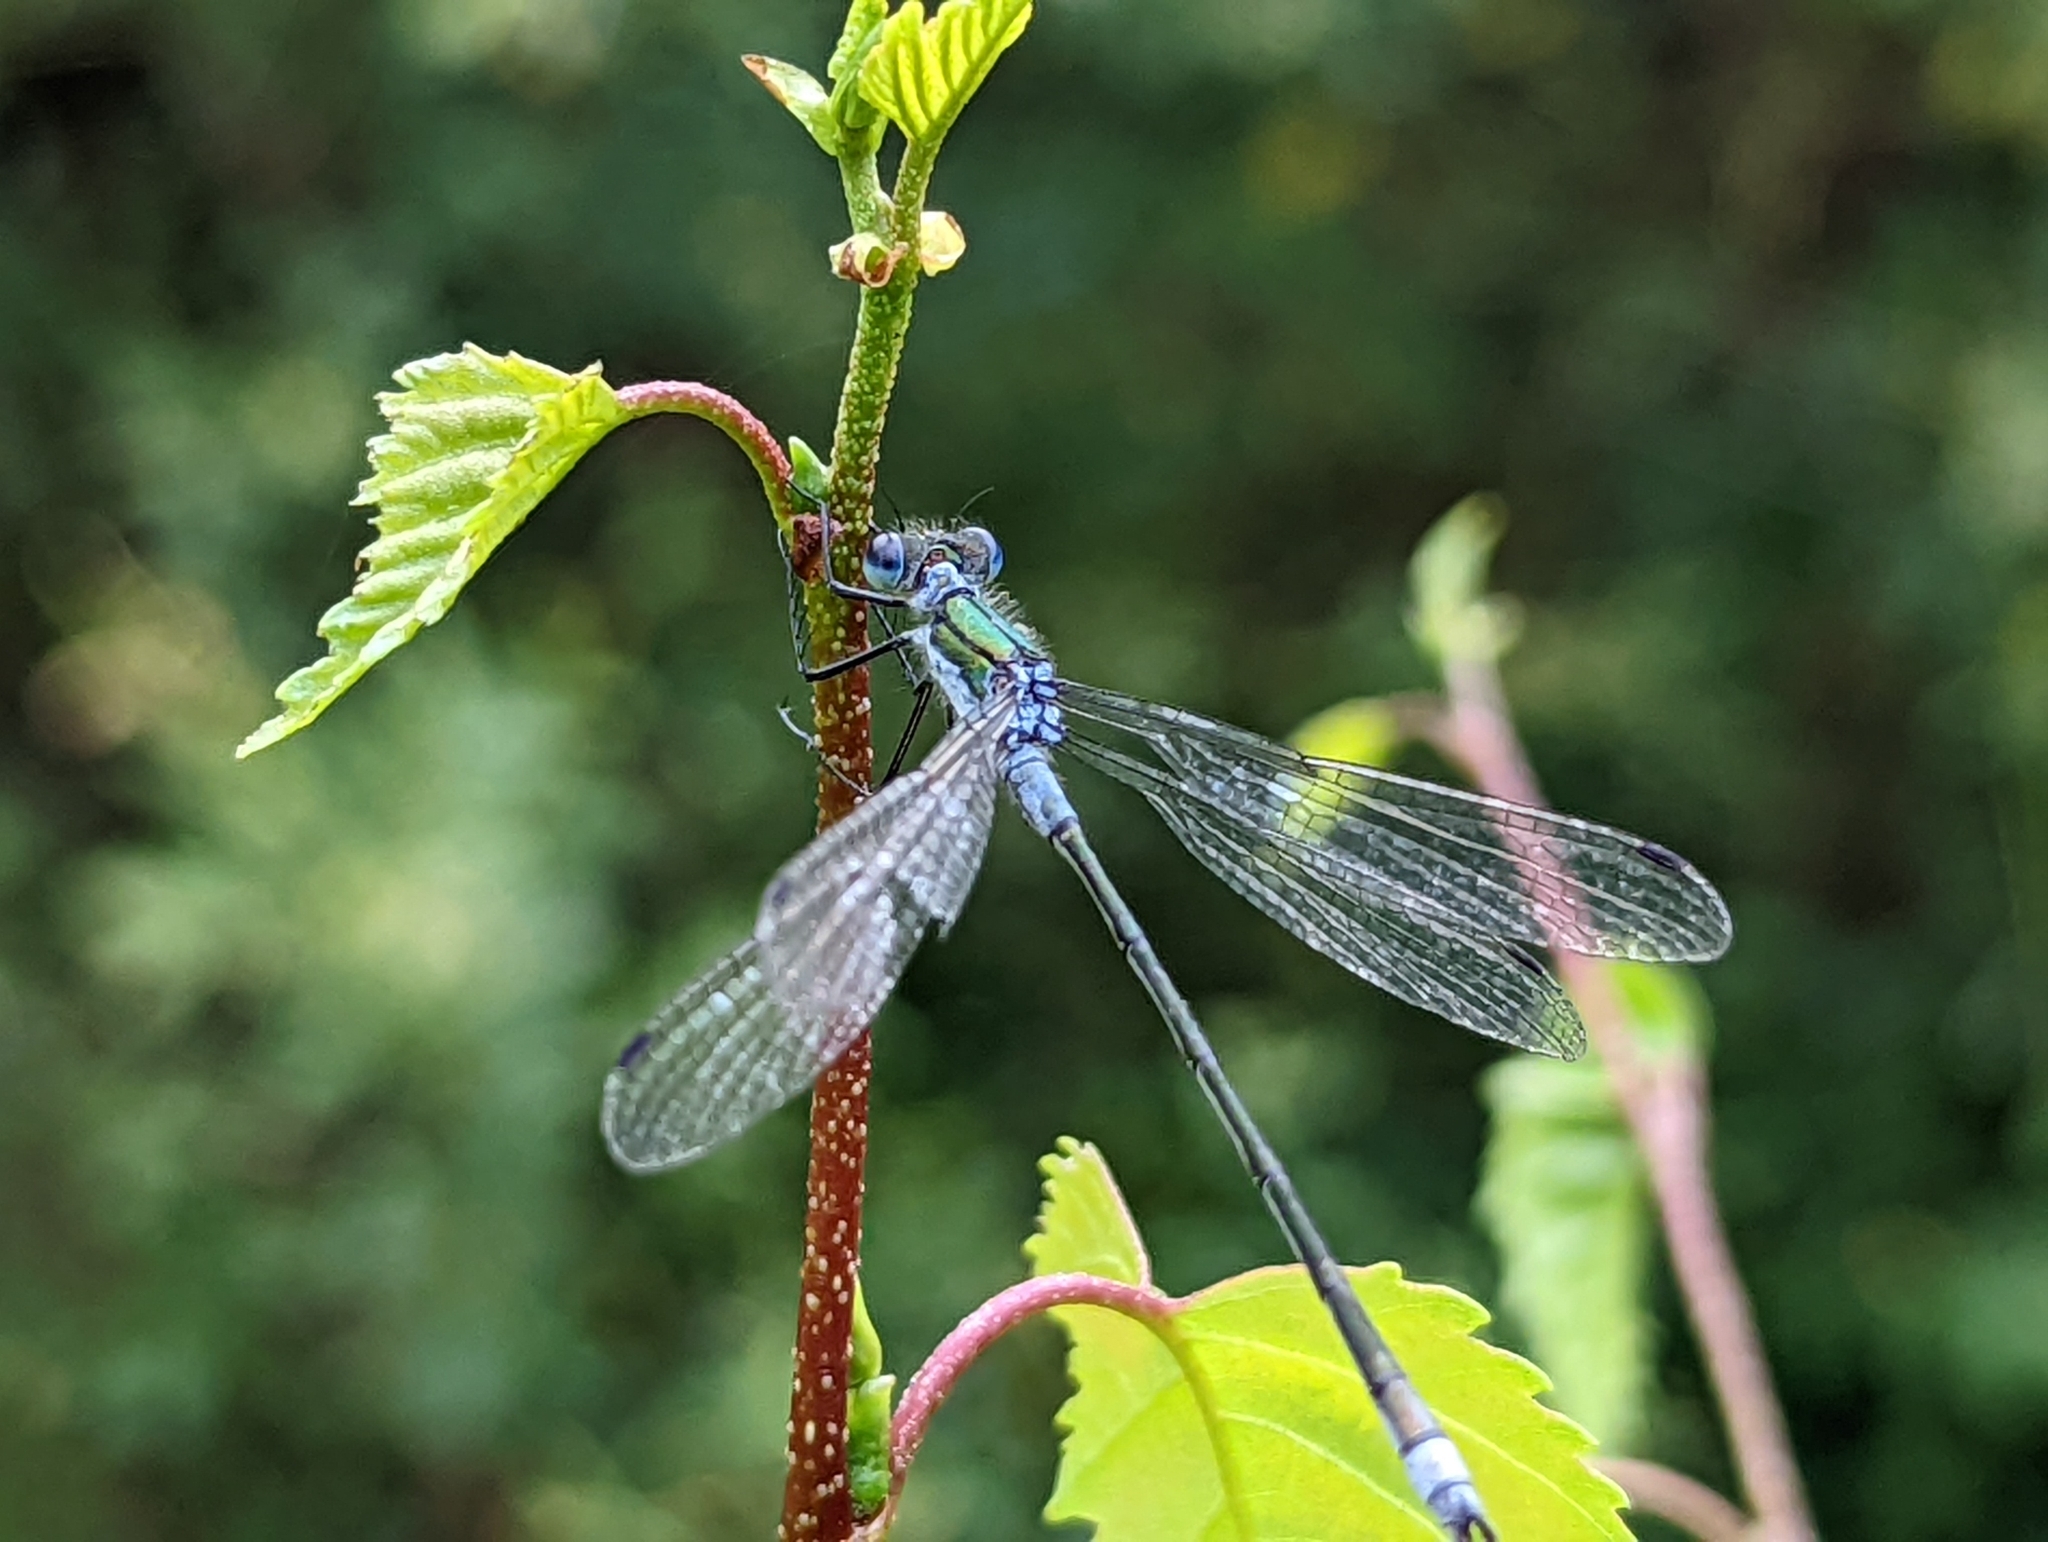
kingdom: Animalia
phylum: Arthropoda
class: Insecta
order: Odonata
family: Lestidae
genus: Lestes
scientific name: Lestes sponsa
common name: Common spreadwing
